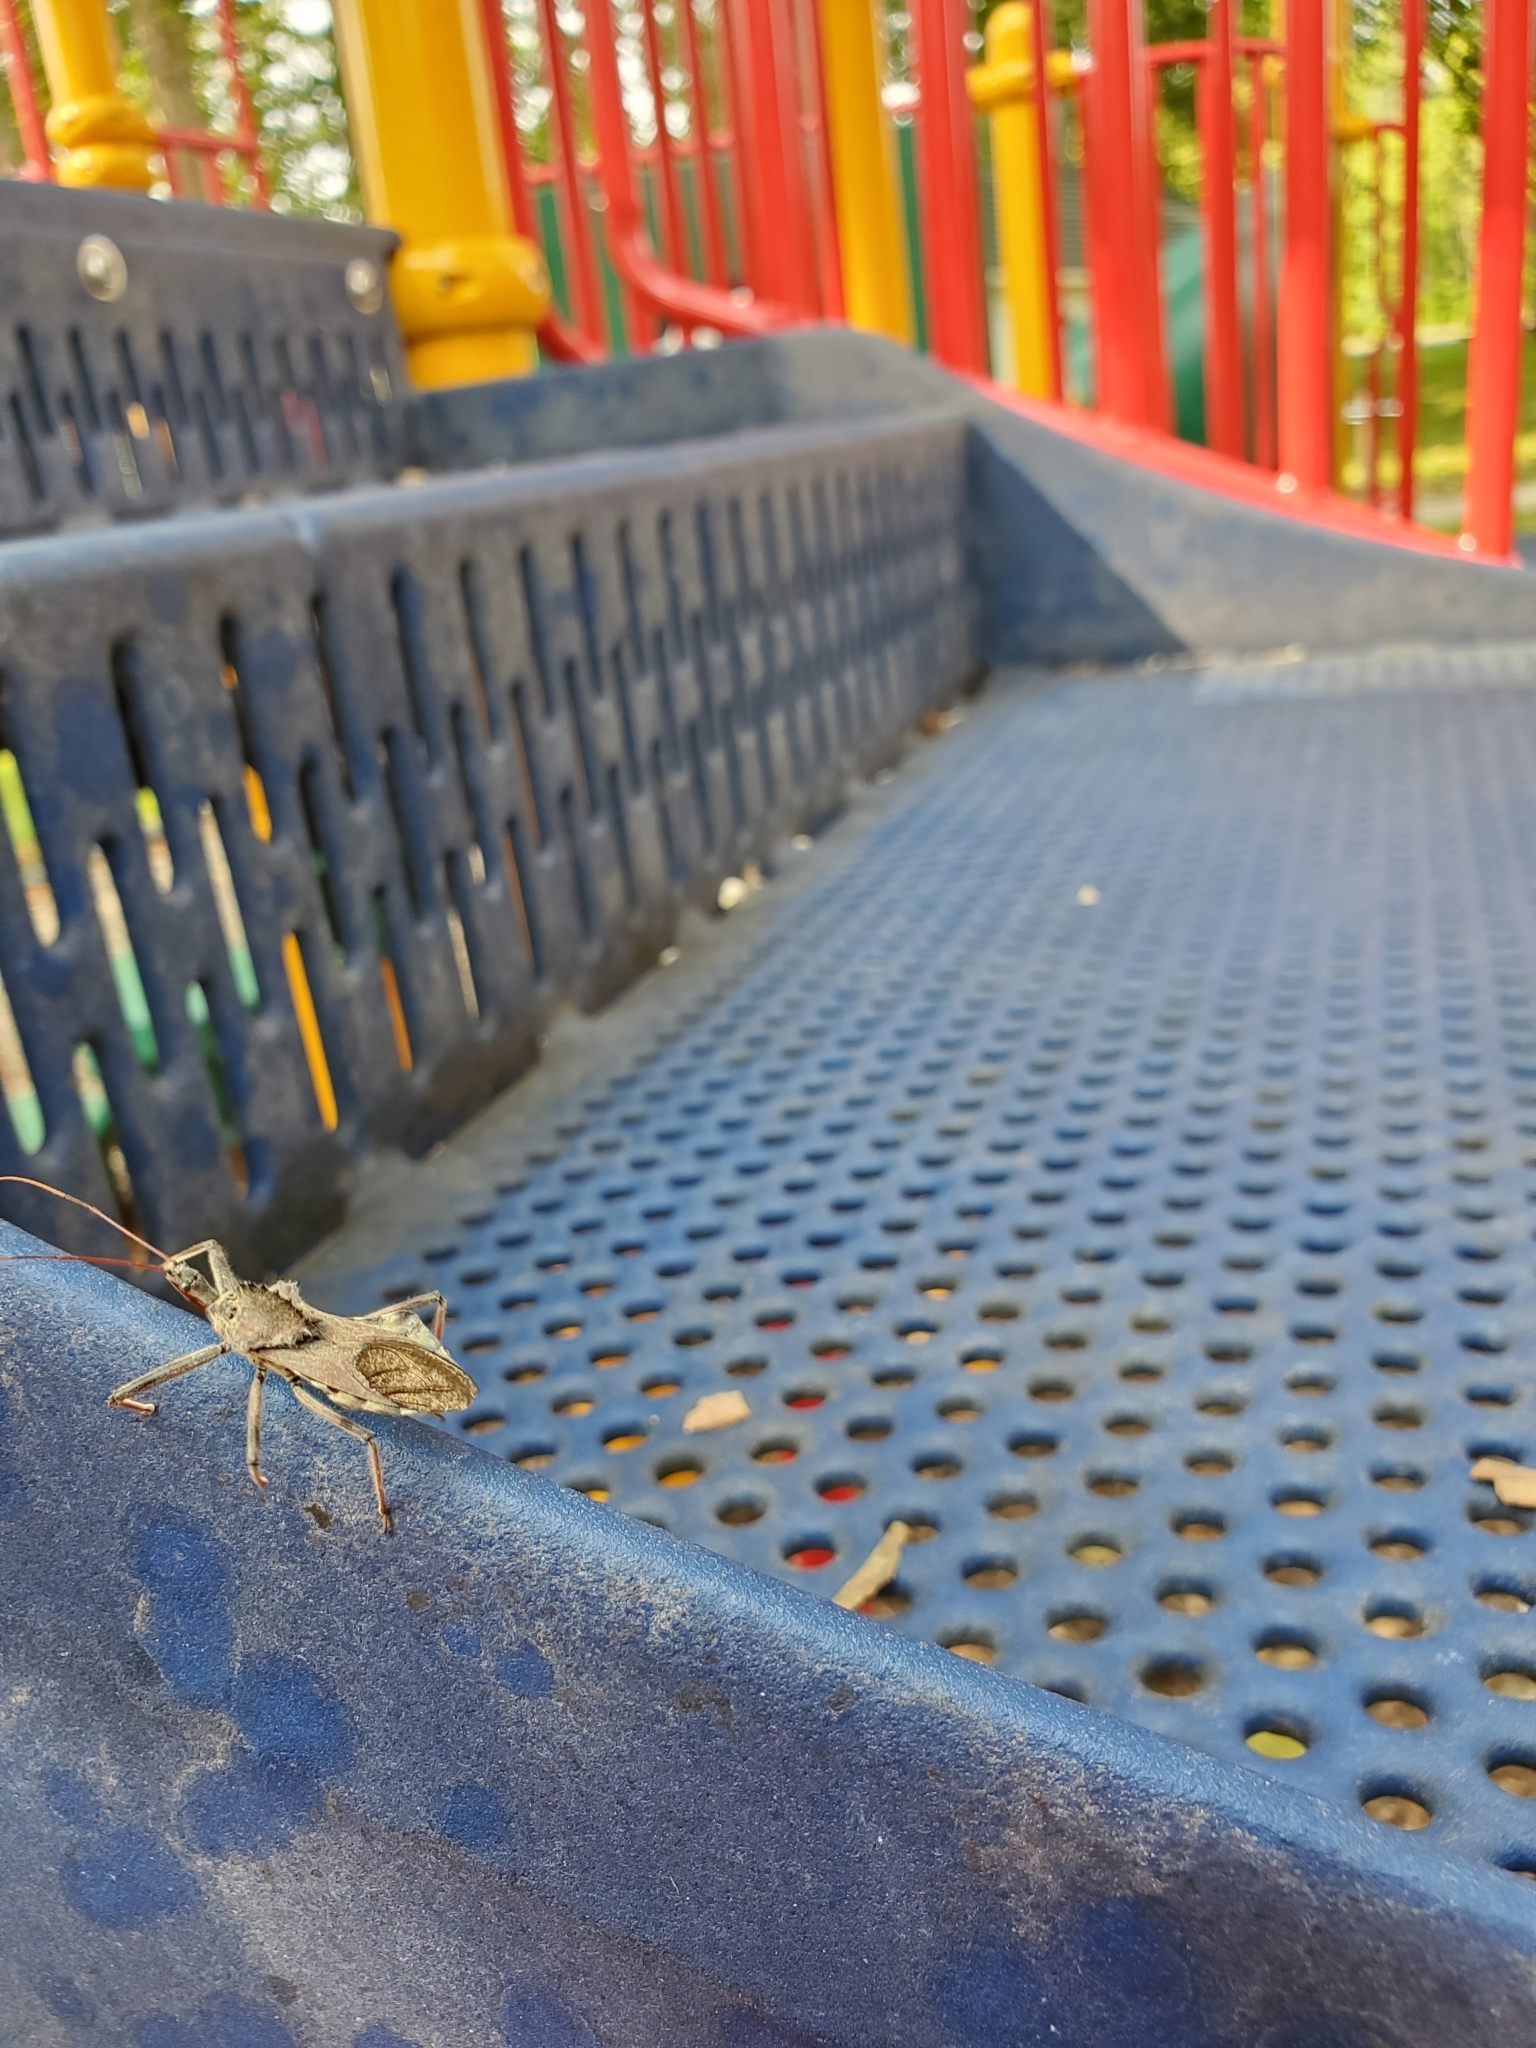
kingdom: Animalia
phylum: Arthropoda
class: Insecta
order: Hemiptera
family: Reduviidae
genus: Arilus
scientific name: Arilus cristatus
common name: North american wheel bug
